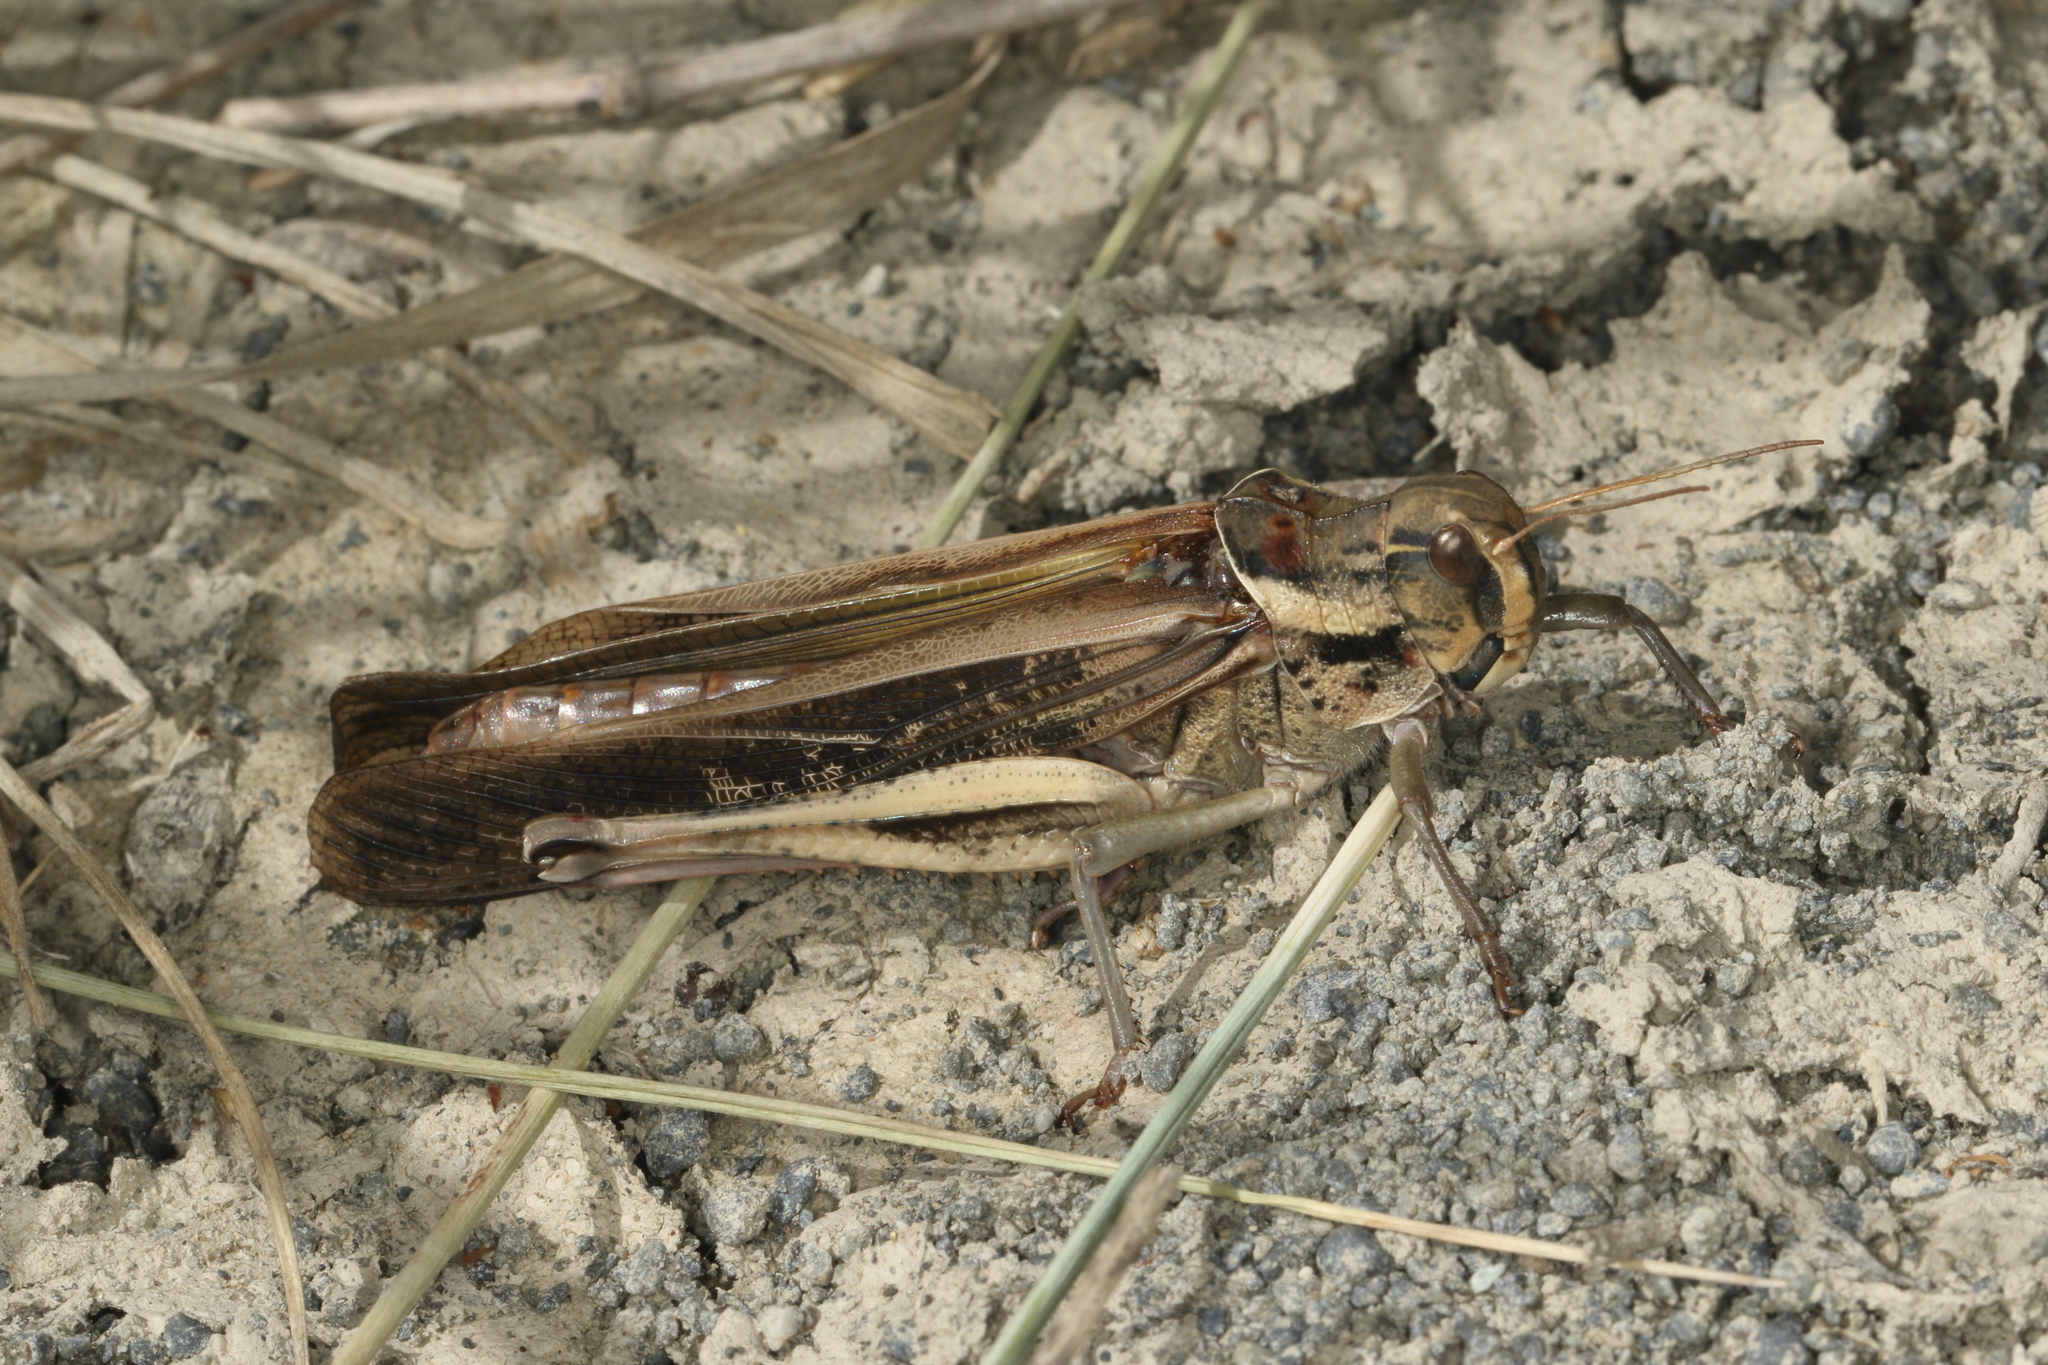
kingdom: Animalia
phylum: Arthropoda
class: Insecta
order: Orthoptera
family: Acrididae
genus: Locusta
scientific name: Locusta migratoria
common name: Migratory locust
